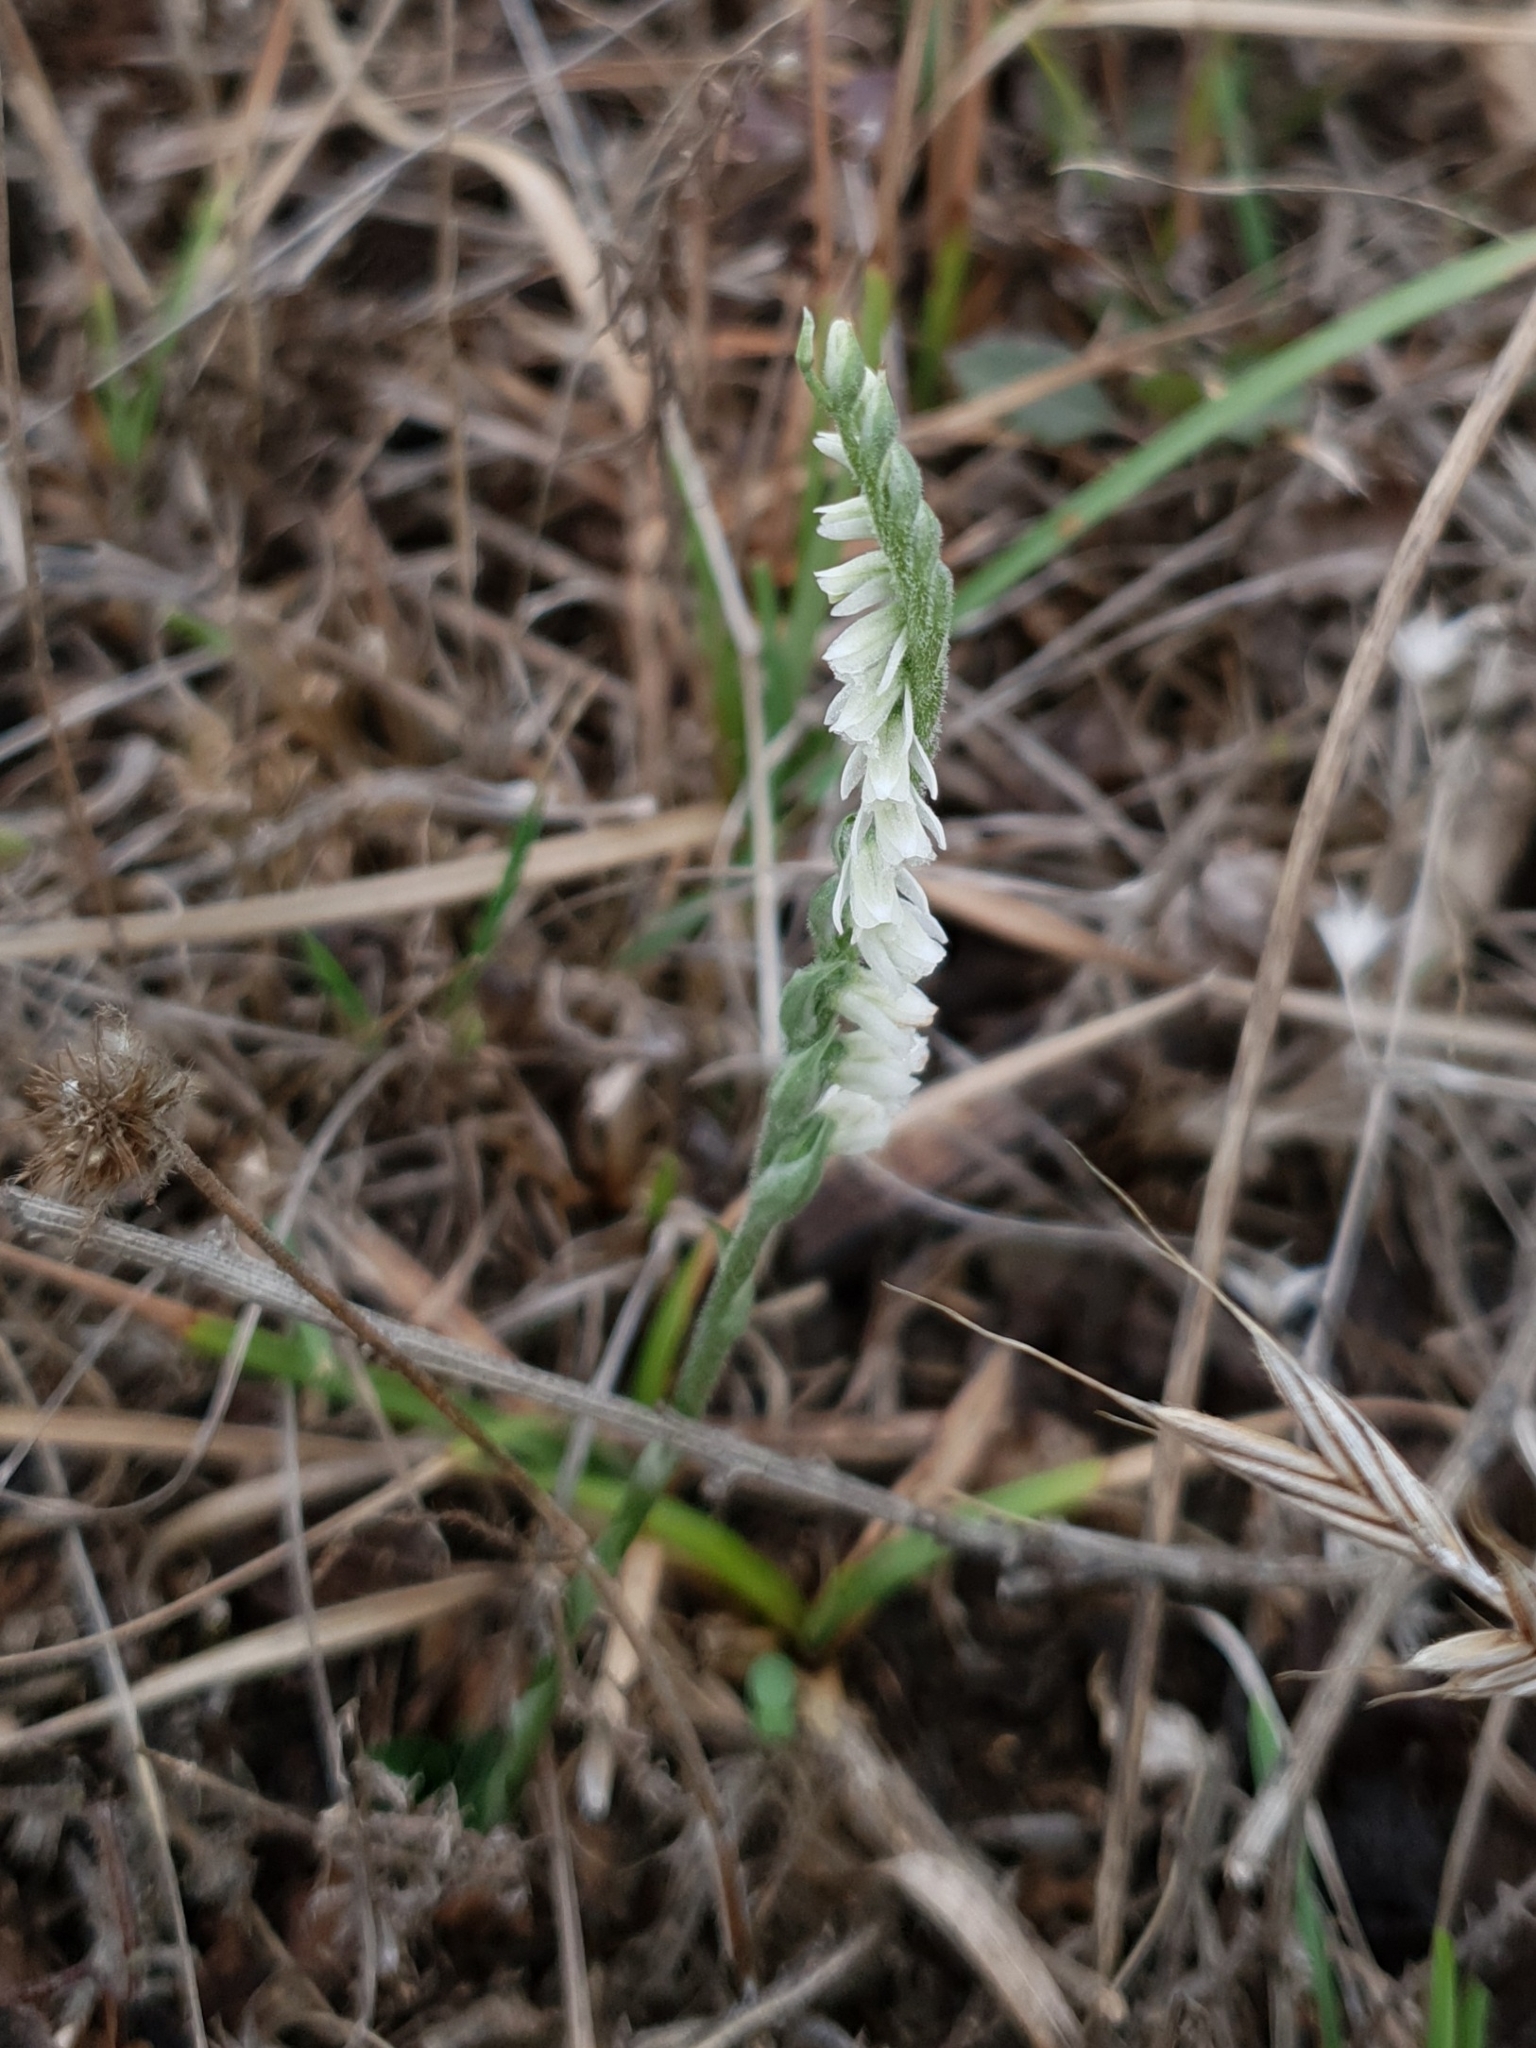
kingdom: Plantae
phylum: Tracheophyta
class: Liliopsida
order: Asparagales
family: Orchidaceae
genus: Spiranthes
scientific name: Spiranthes spiralis
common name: Autumn lady's-tresses
